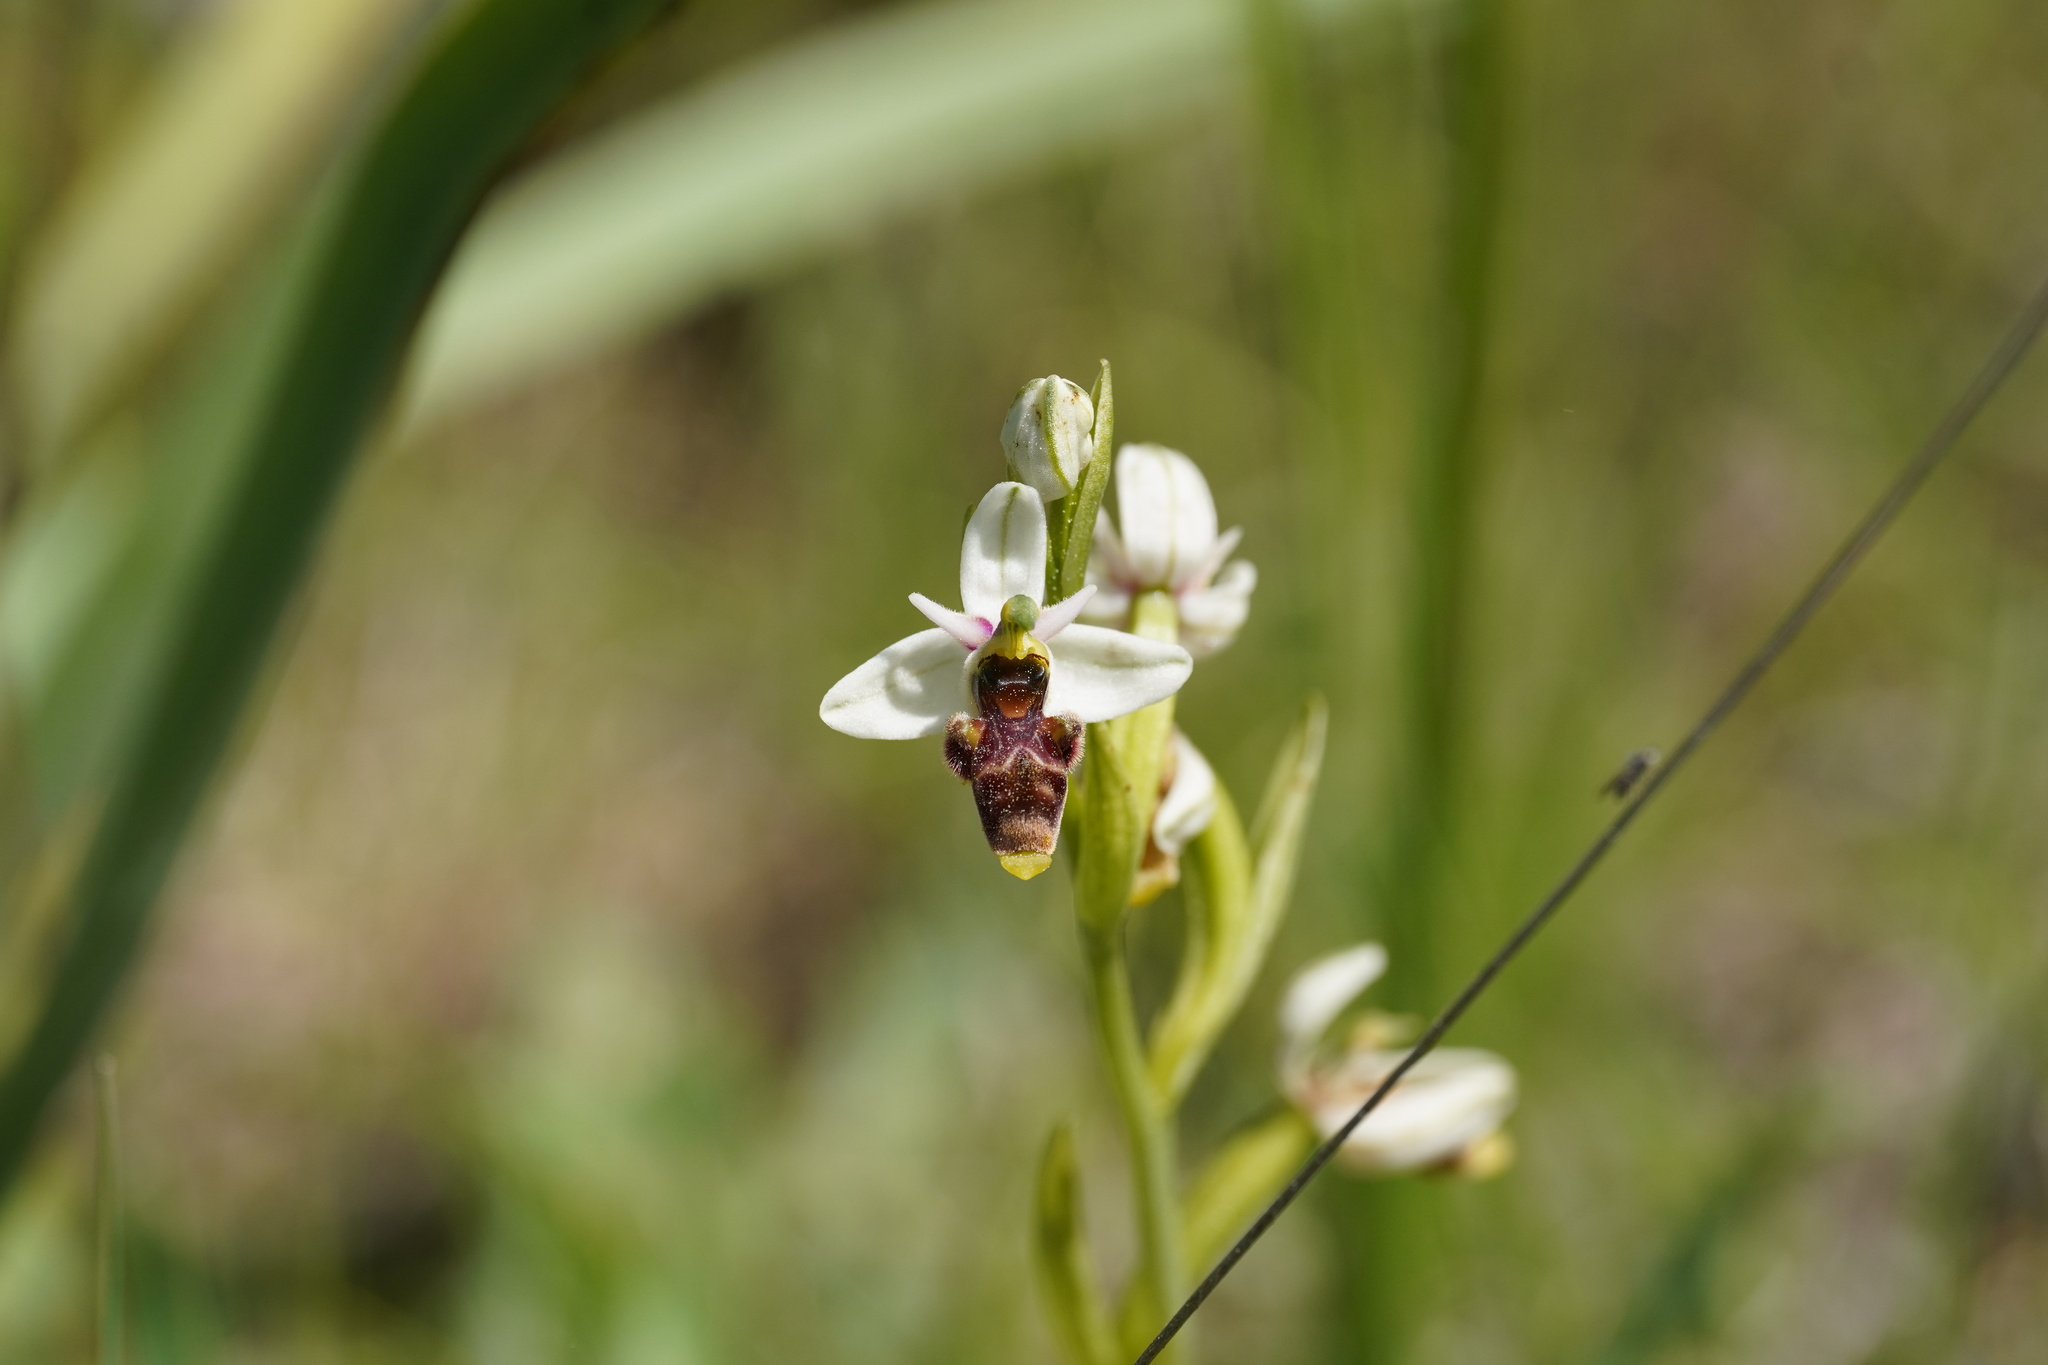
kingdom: Plantae
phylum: Tracheophyta
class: Liliopsida
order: Asparagales
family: Orchidaceae
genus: Ophrys
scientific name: Ophrys scolopax
